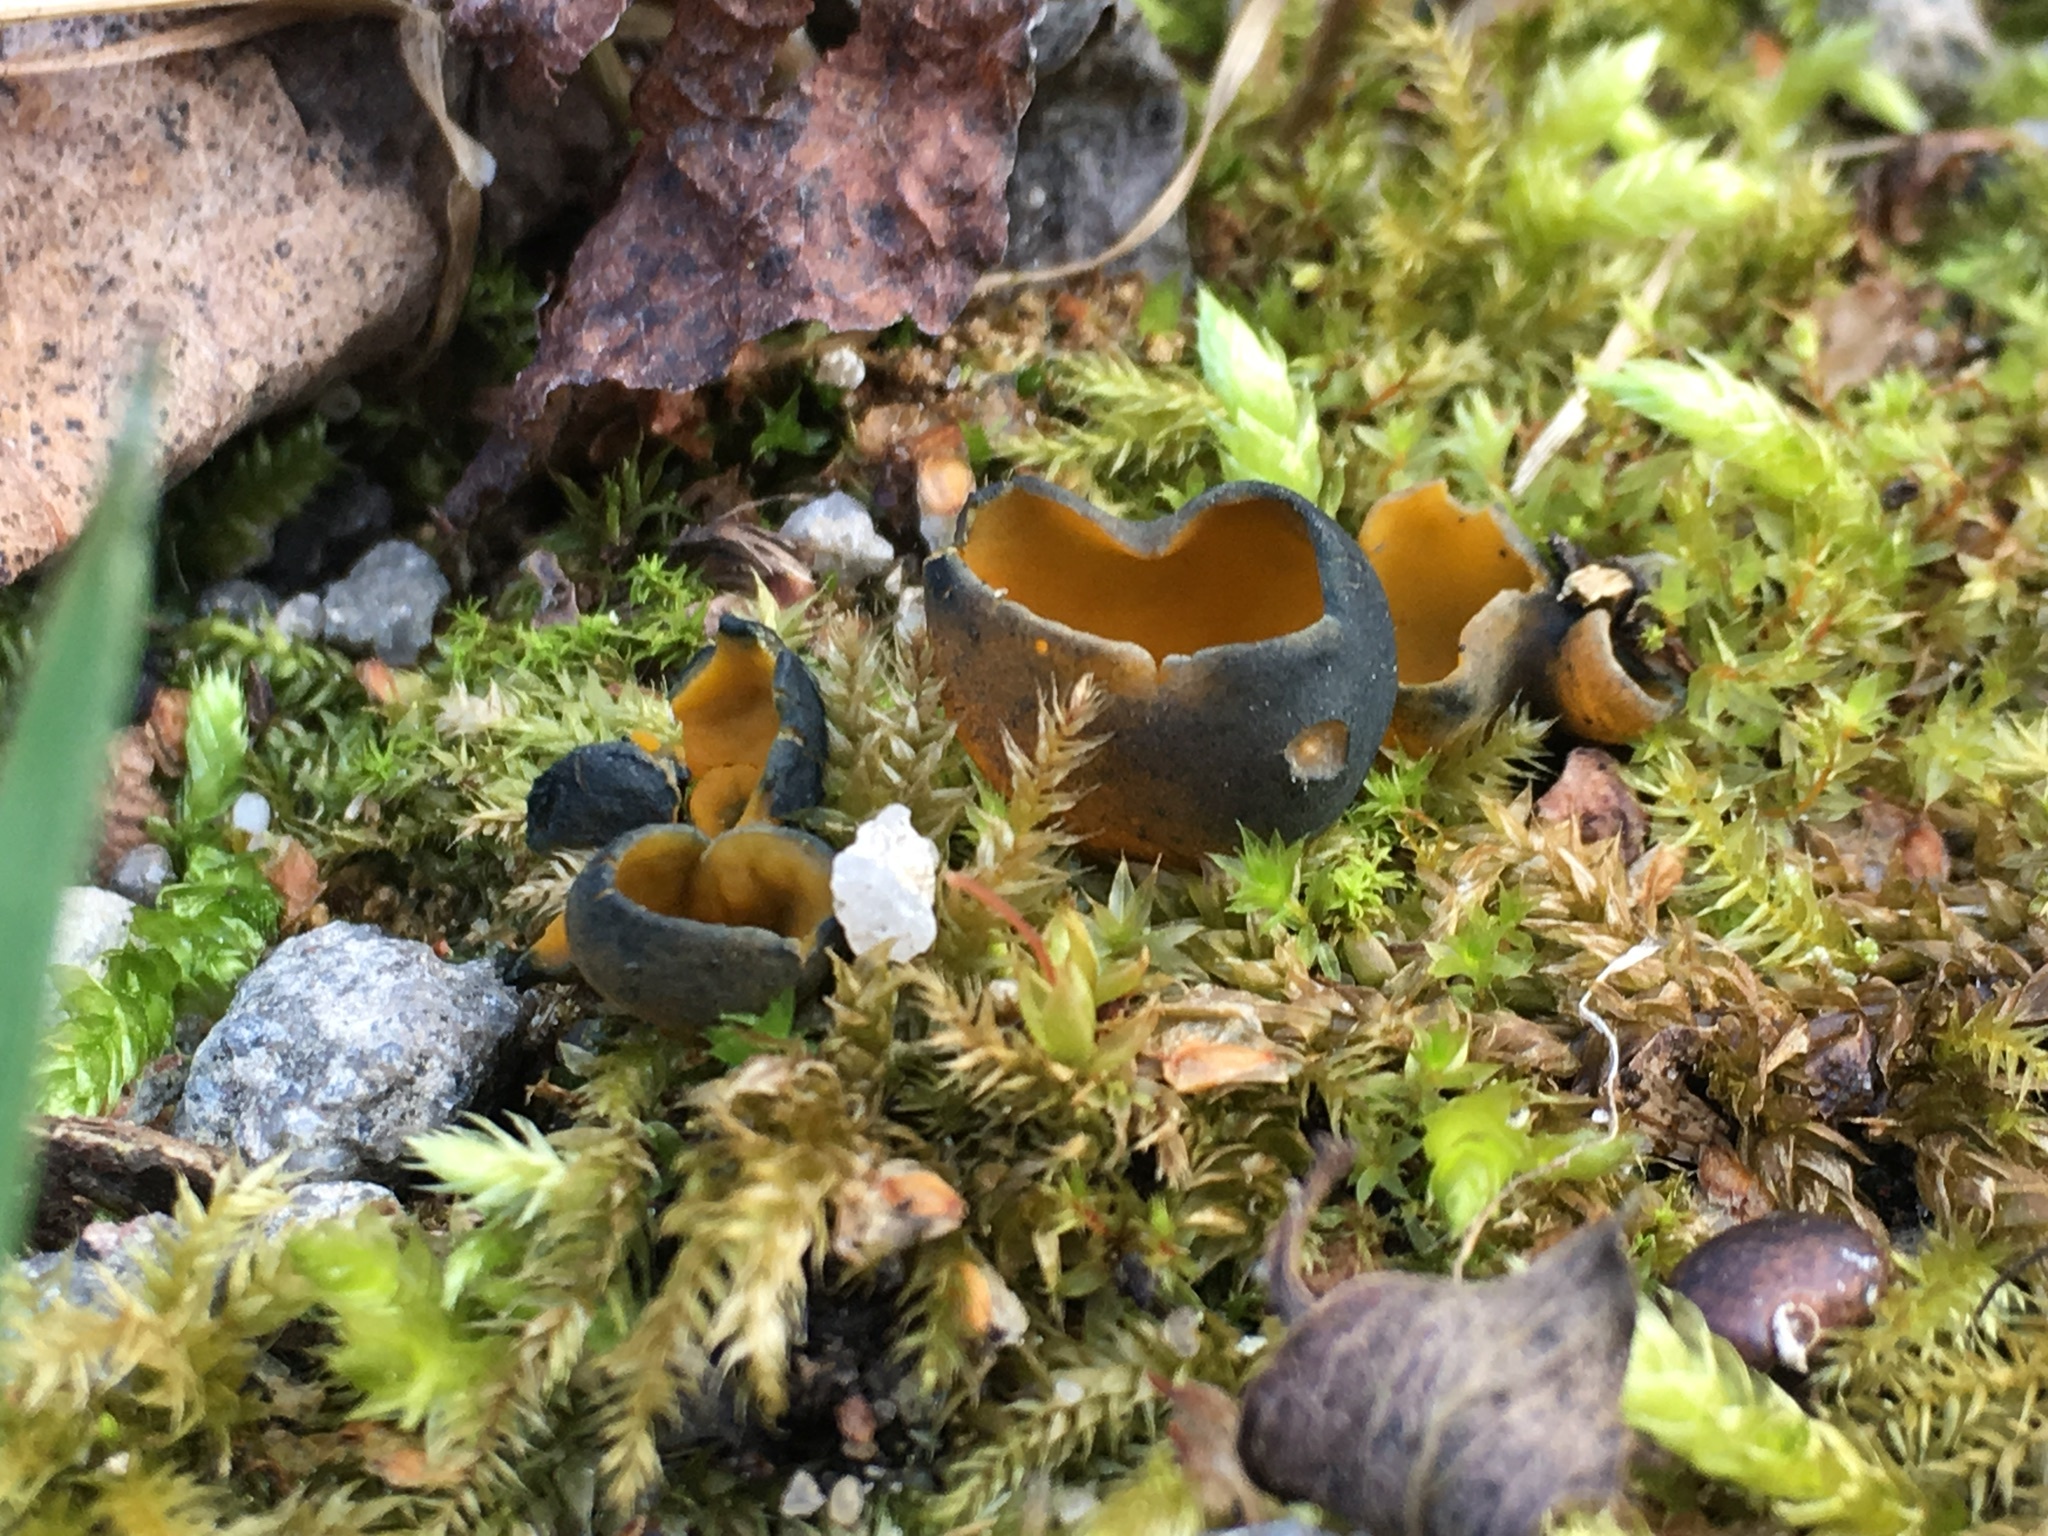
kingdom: Fungi
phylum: Ascomycota
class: Pezizomycetes
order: Pezizales
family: Caloscyphaceae
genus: Caloscypha
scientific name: Caloscypha fulgens
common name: Golden cup
